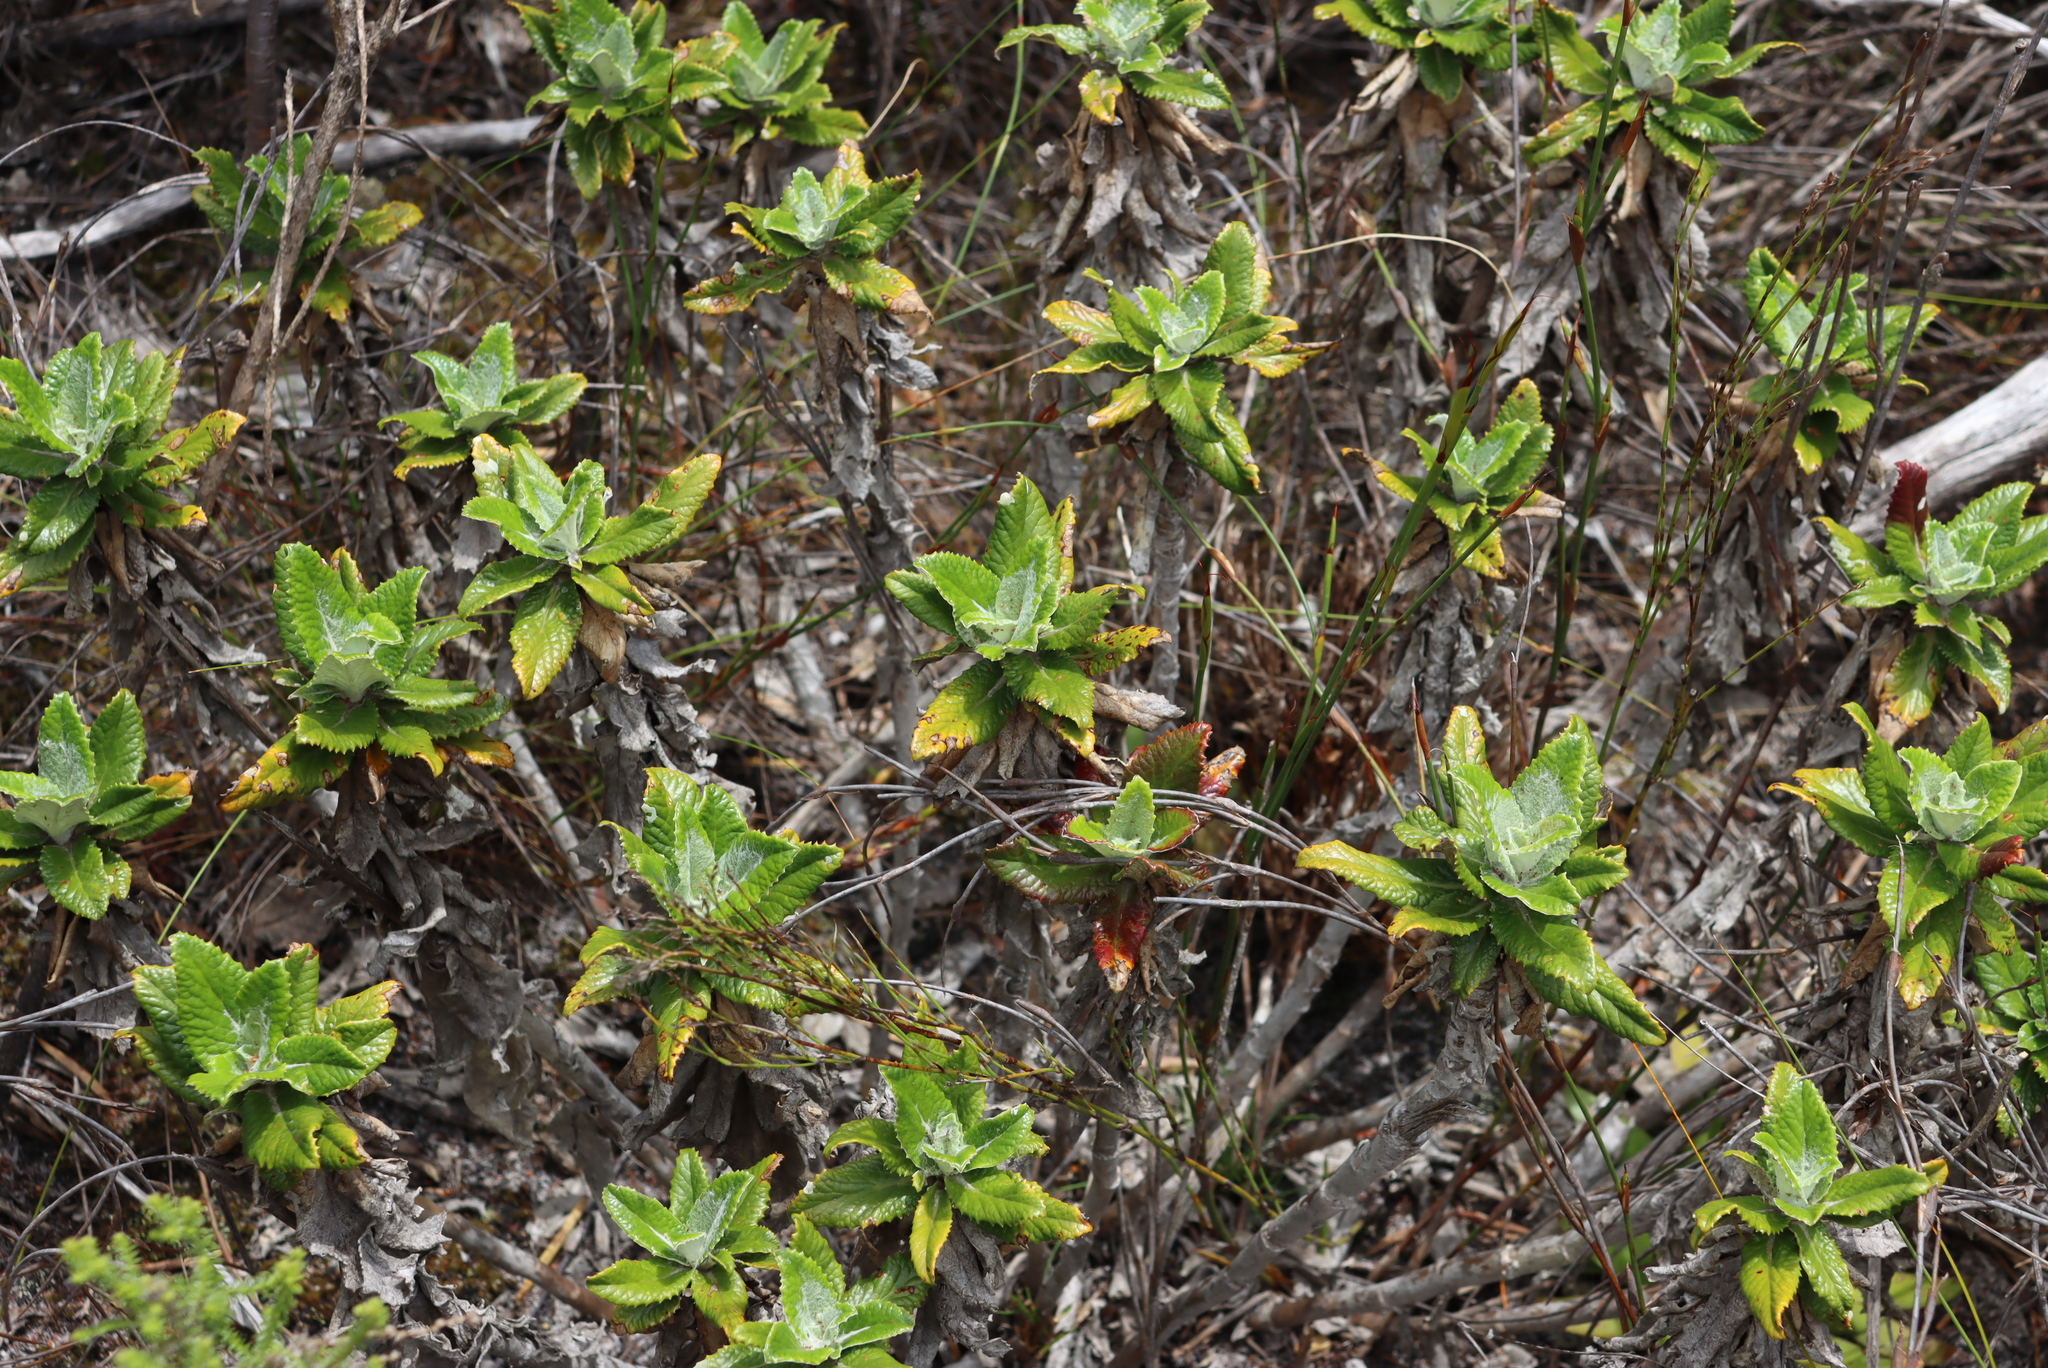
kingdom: Plantae
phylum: Tracheophyta
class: Magnoliopsida
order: Apiales
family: Apiaceae
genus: Hermas
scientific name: Hermas villosa
